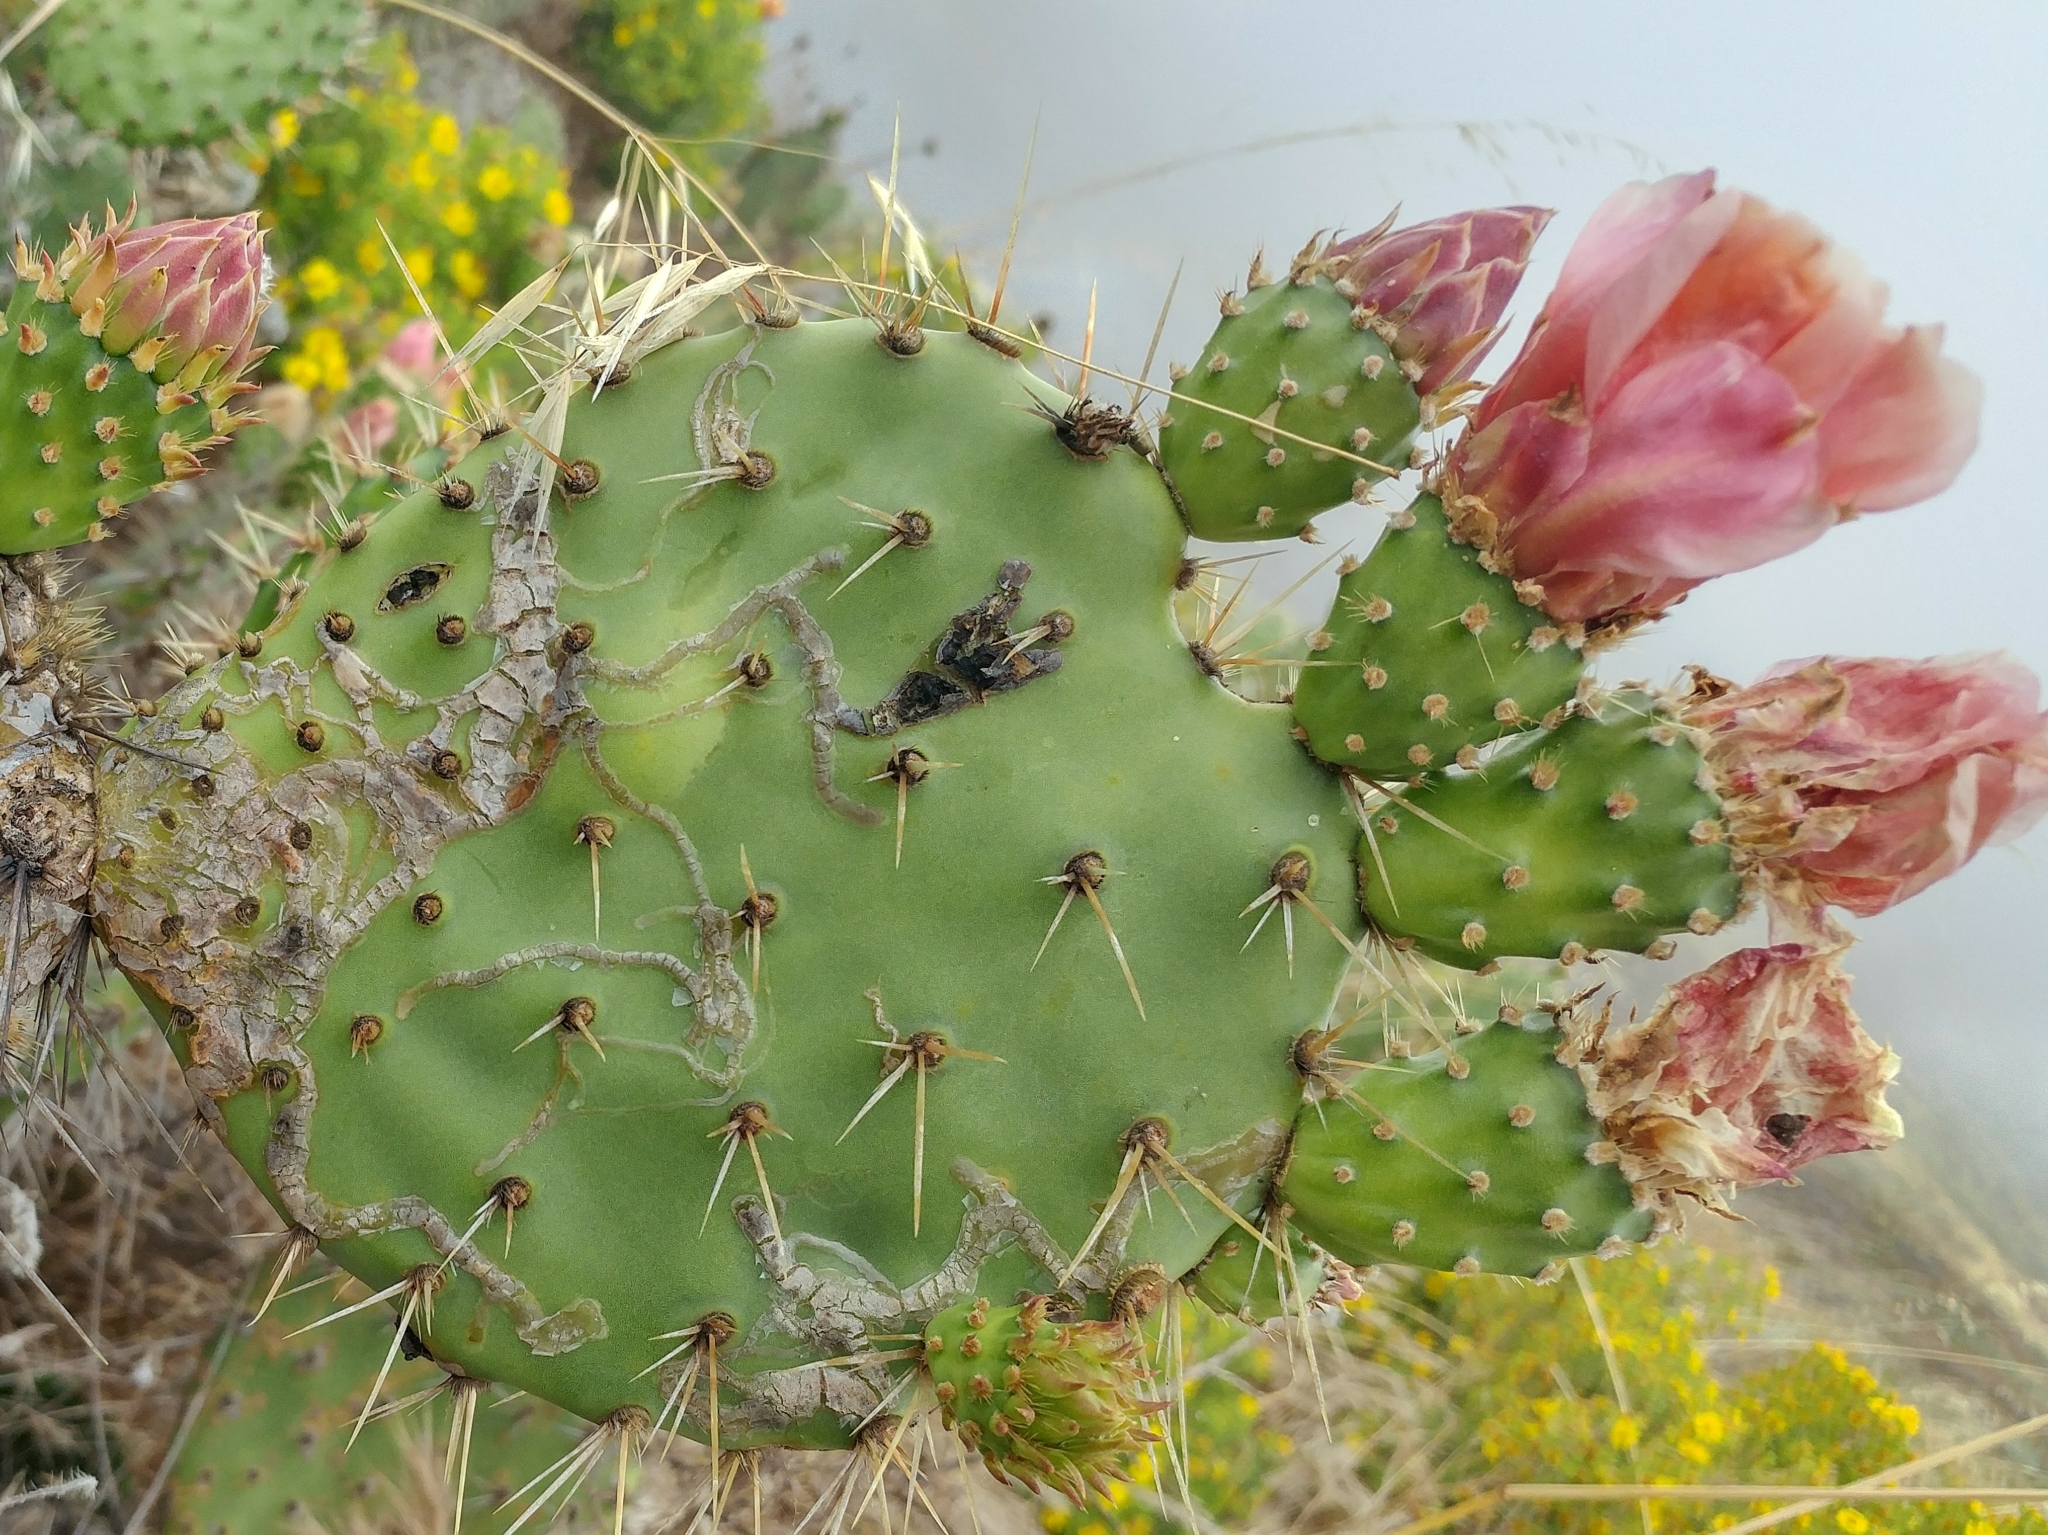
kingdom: Animalia
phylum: Arthropoda
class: Insecta
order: Lepidoptera
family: Gracillariidae
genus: Marmara
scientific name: Marmara opuntiella
